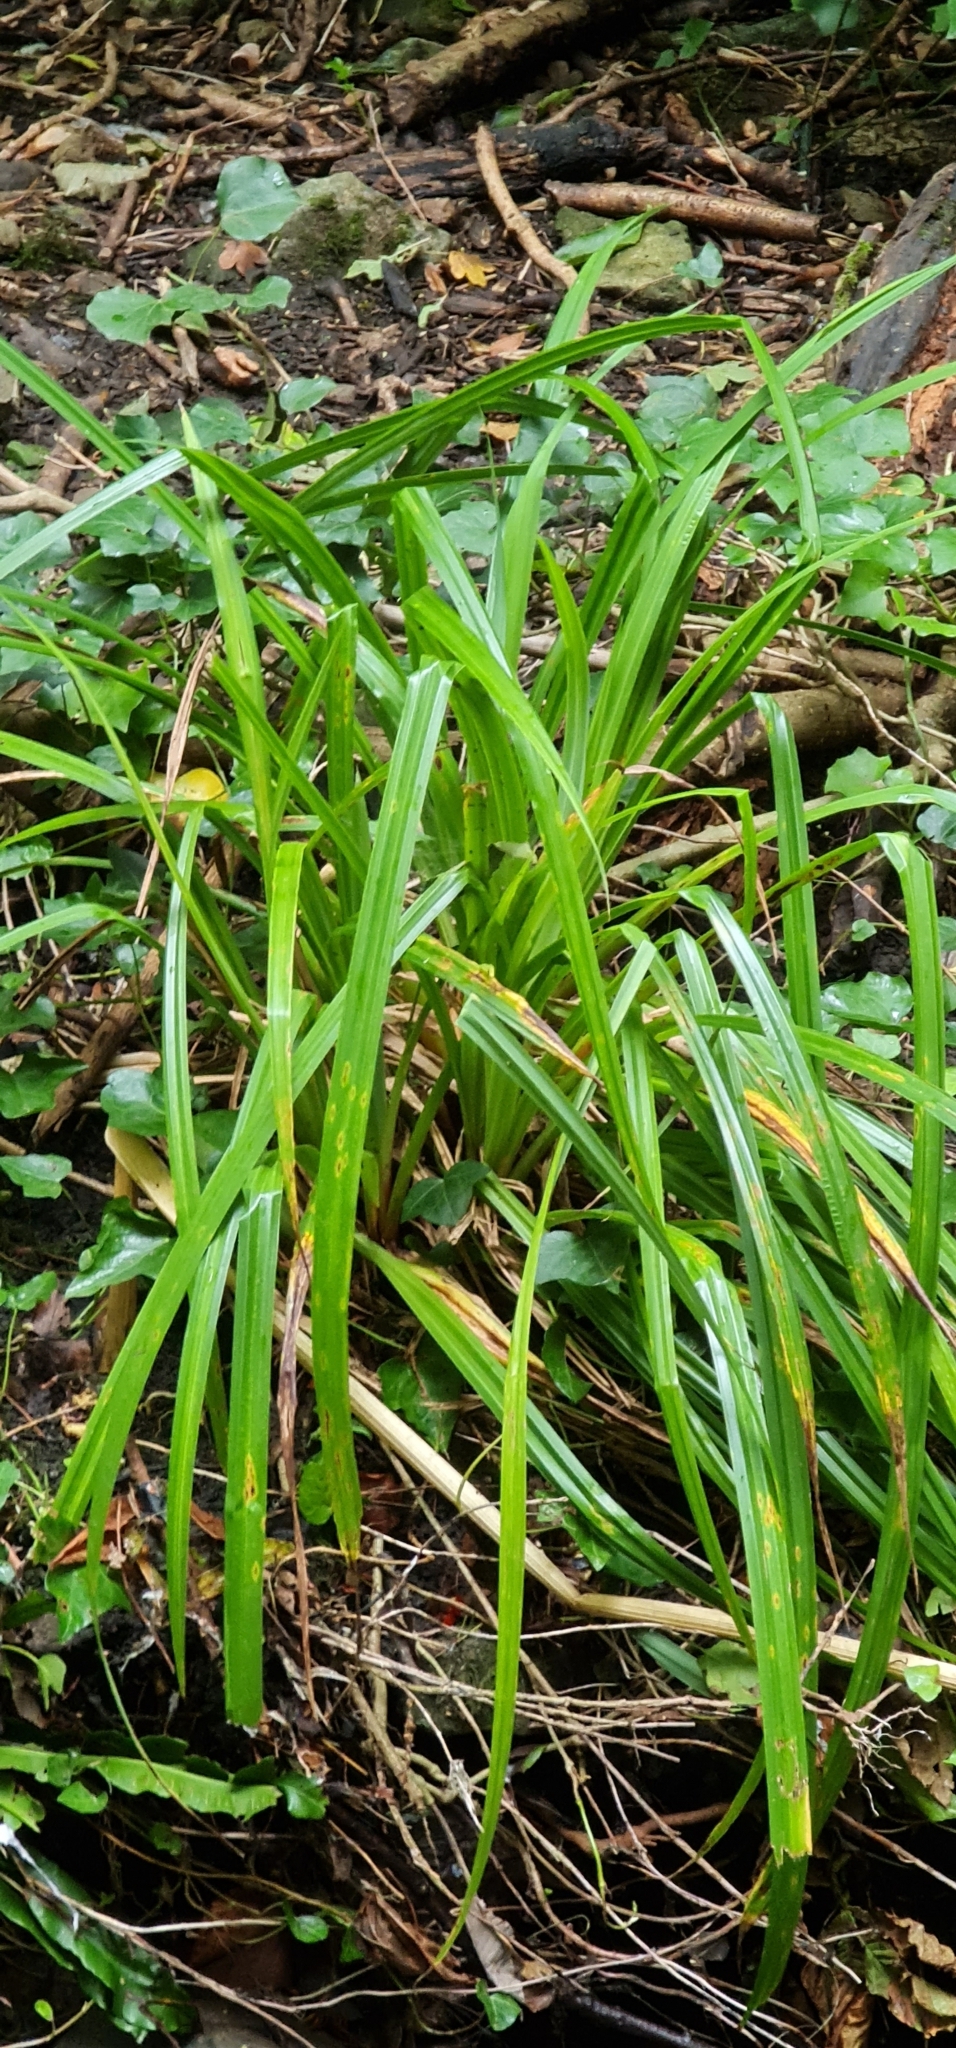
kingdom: Plantae
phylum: Tracheophyta
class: Liliopsida
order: Poales
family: Cyperaceae
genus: Carex
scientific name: Carex pendula
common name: Pendulous sedge
